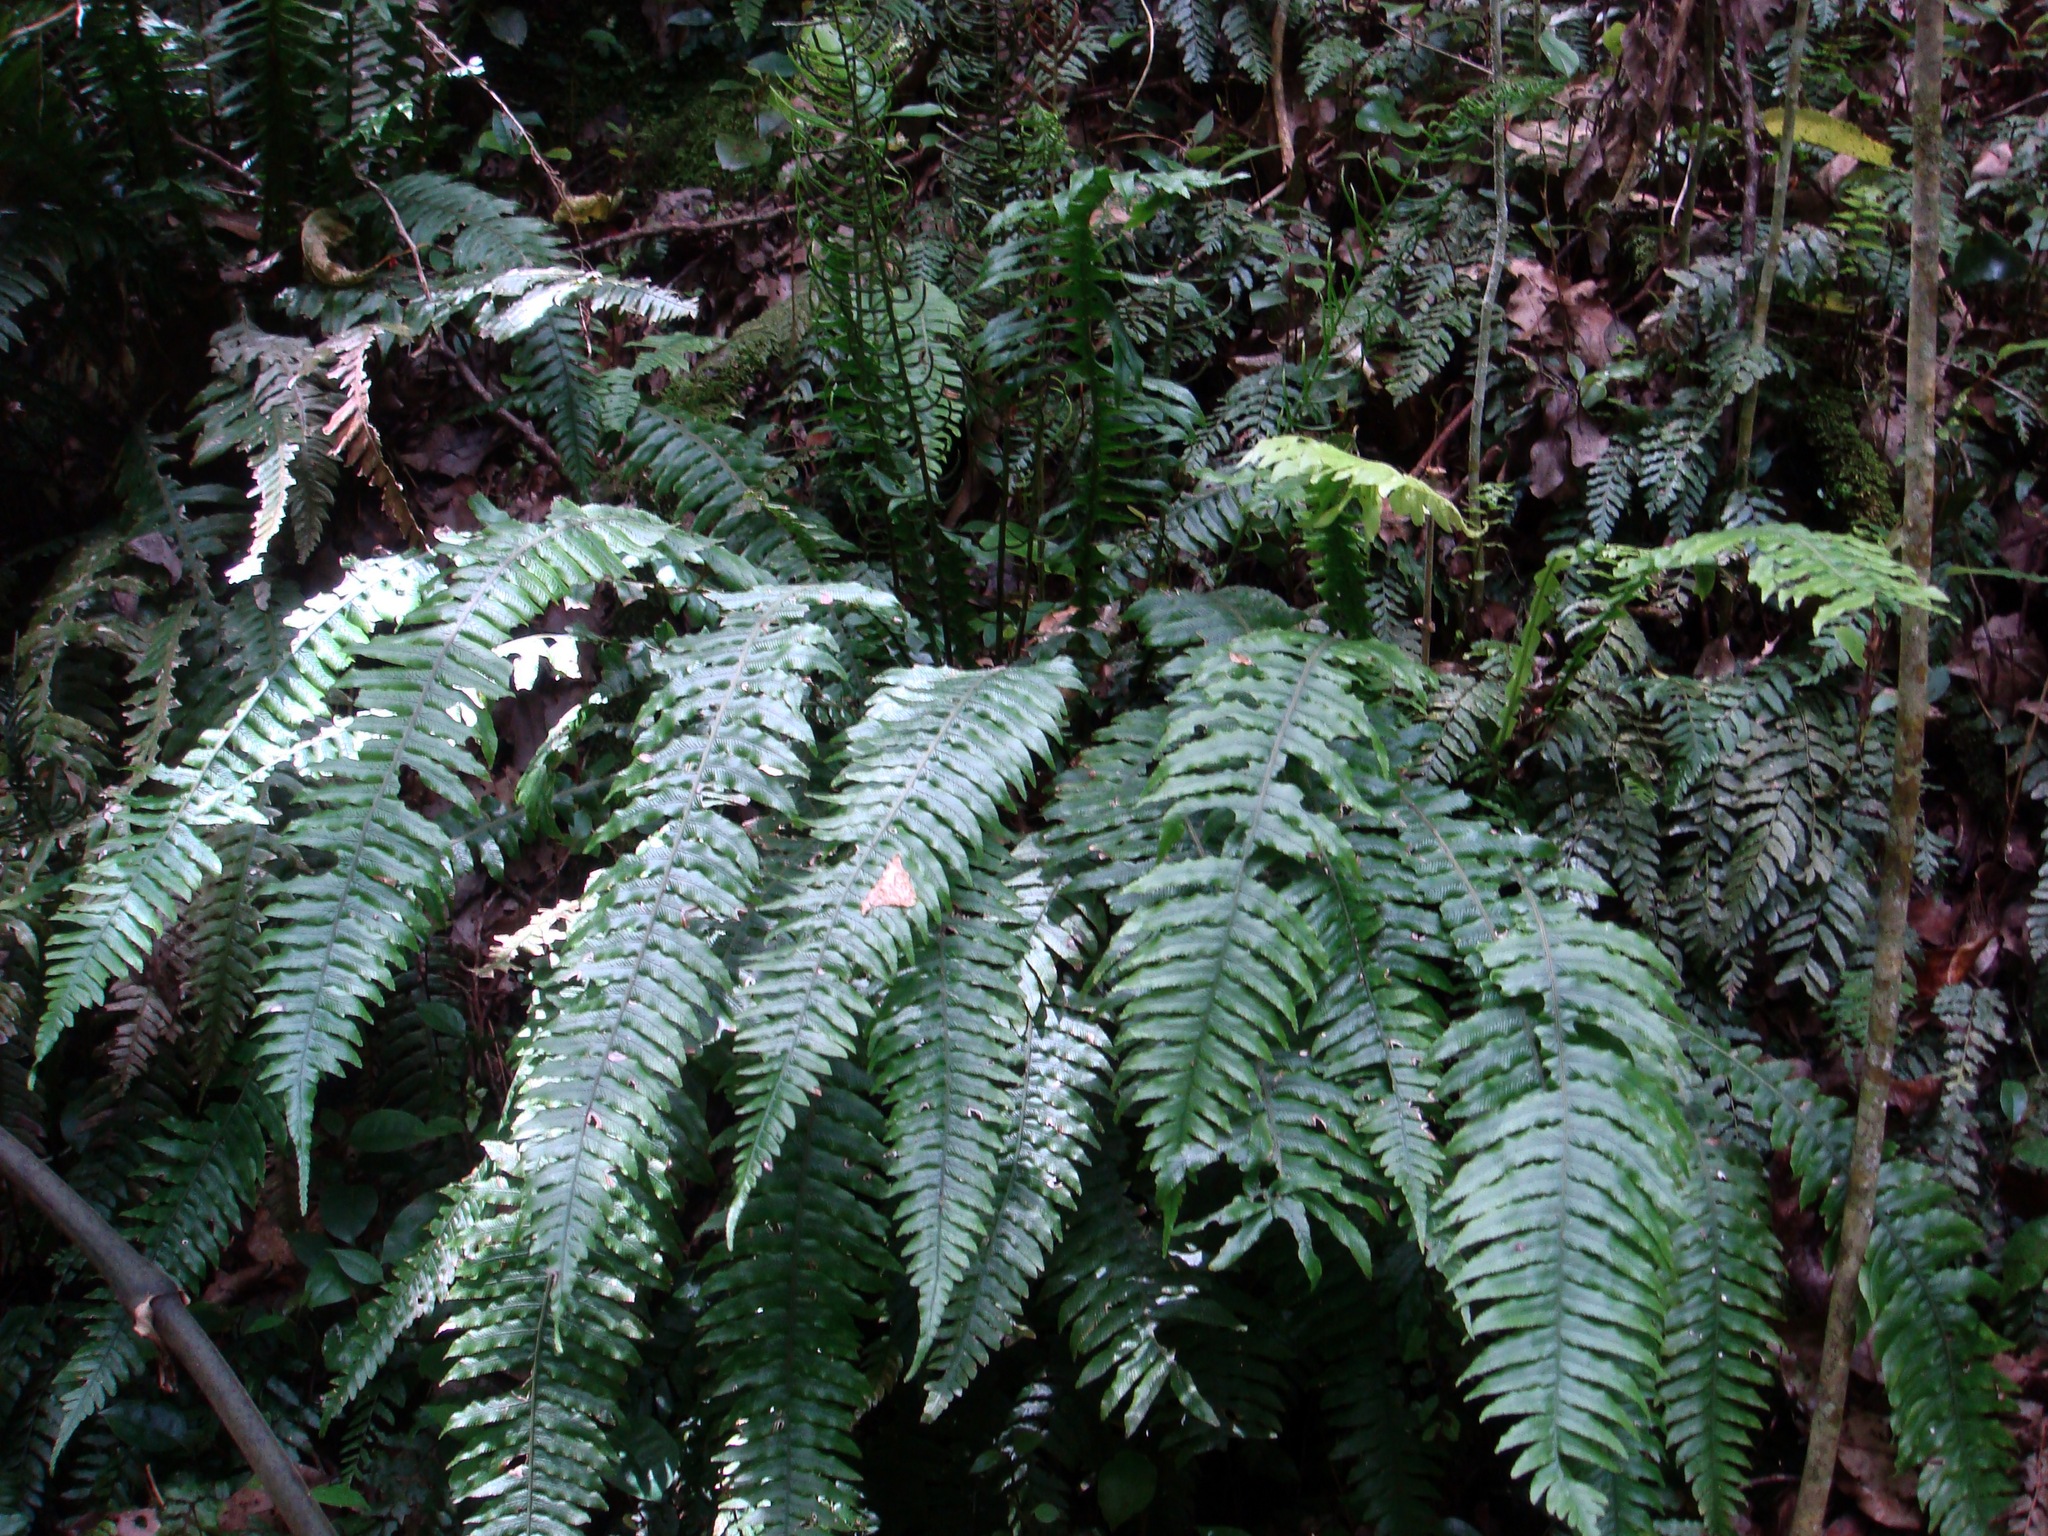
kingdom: Plantae
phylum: Tracheophyta
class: Polypodiopsida
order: Polypodiales
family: Blechnaceae
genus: Austroblechnum
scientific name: Austroblechnum norfolkianum
